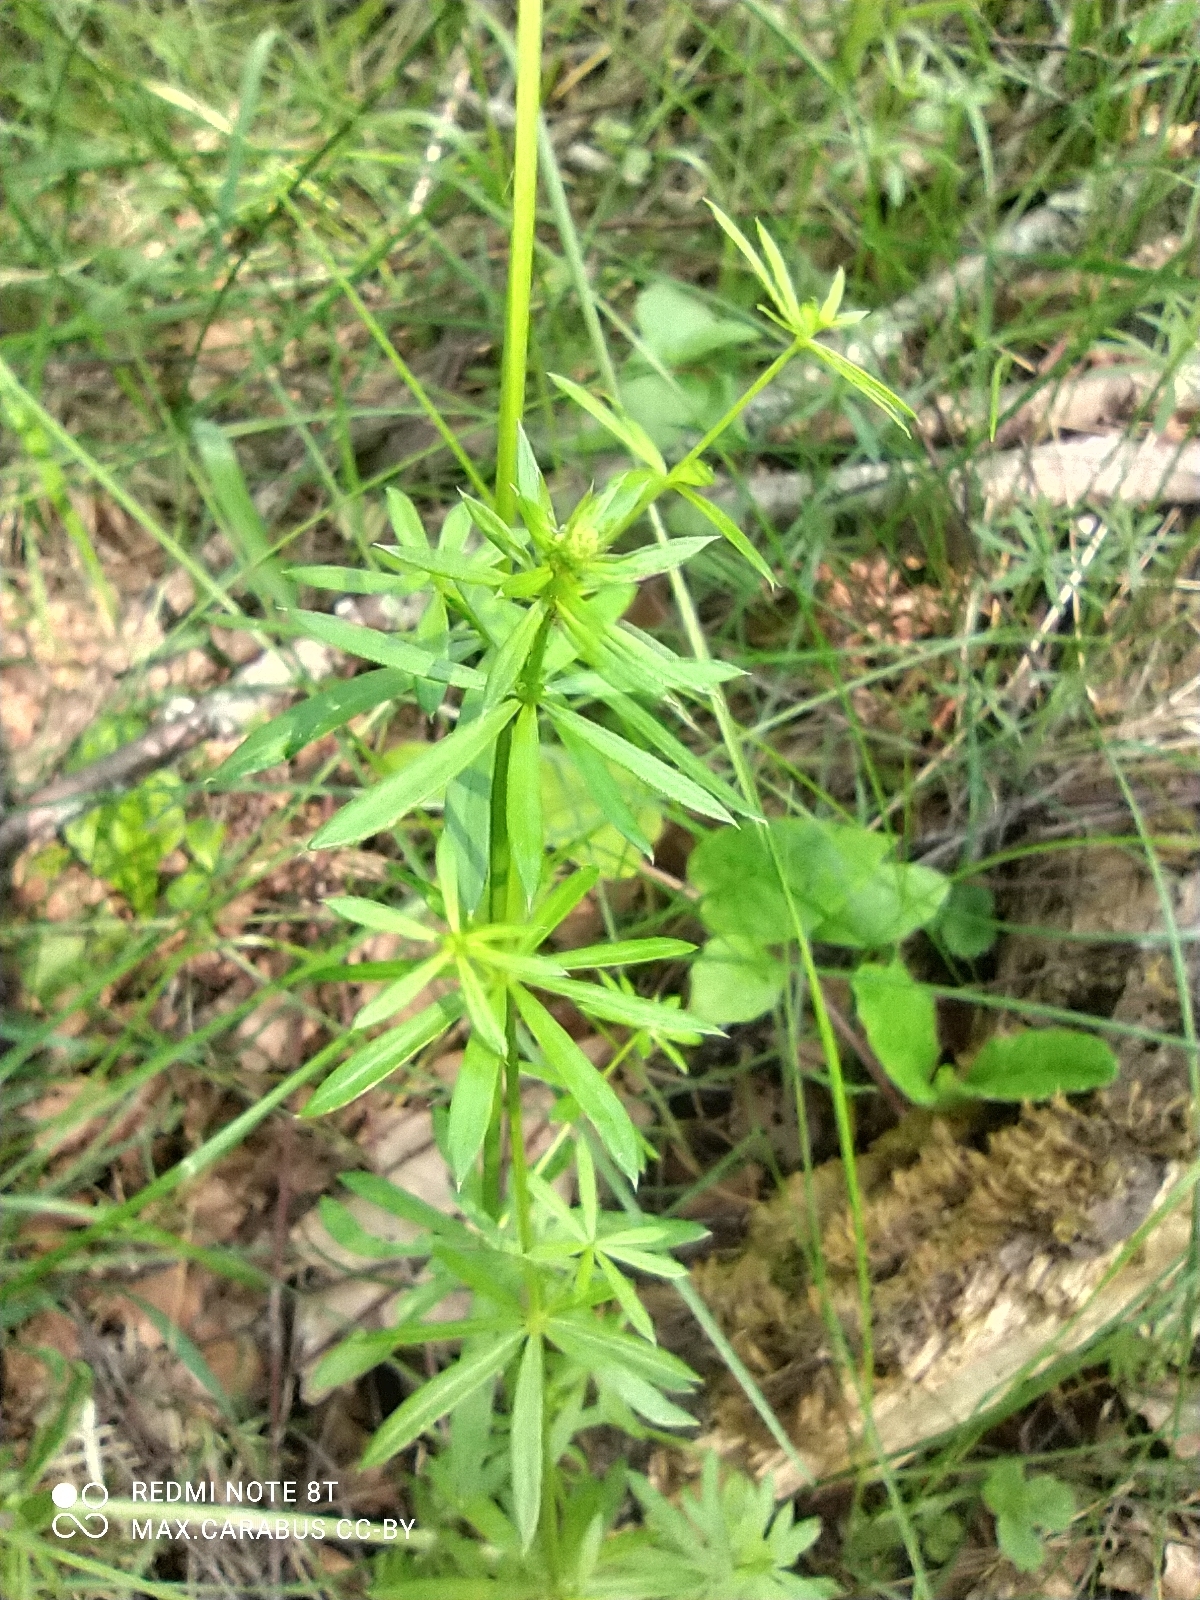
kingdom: Plantae
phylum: Tracheophyta
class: Magnoliopsida
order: Gentianales
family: Rubiaceae
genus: Galium
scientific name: Galium mollugo
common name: Hedge bedstraw
